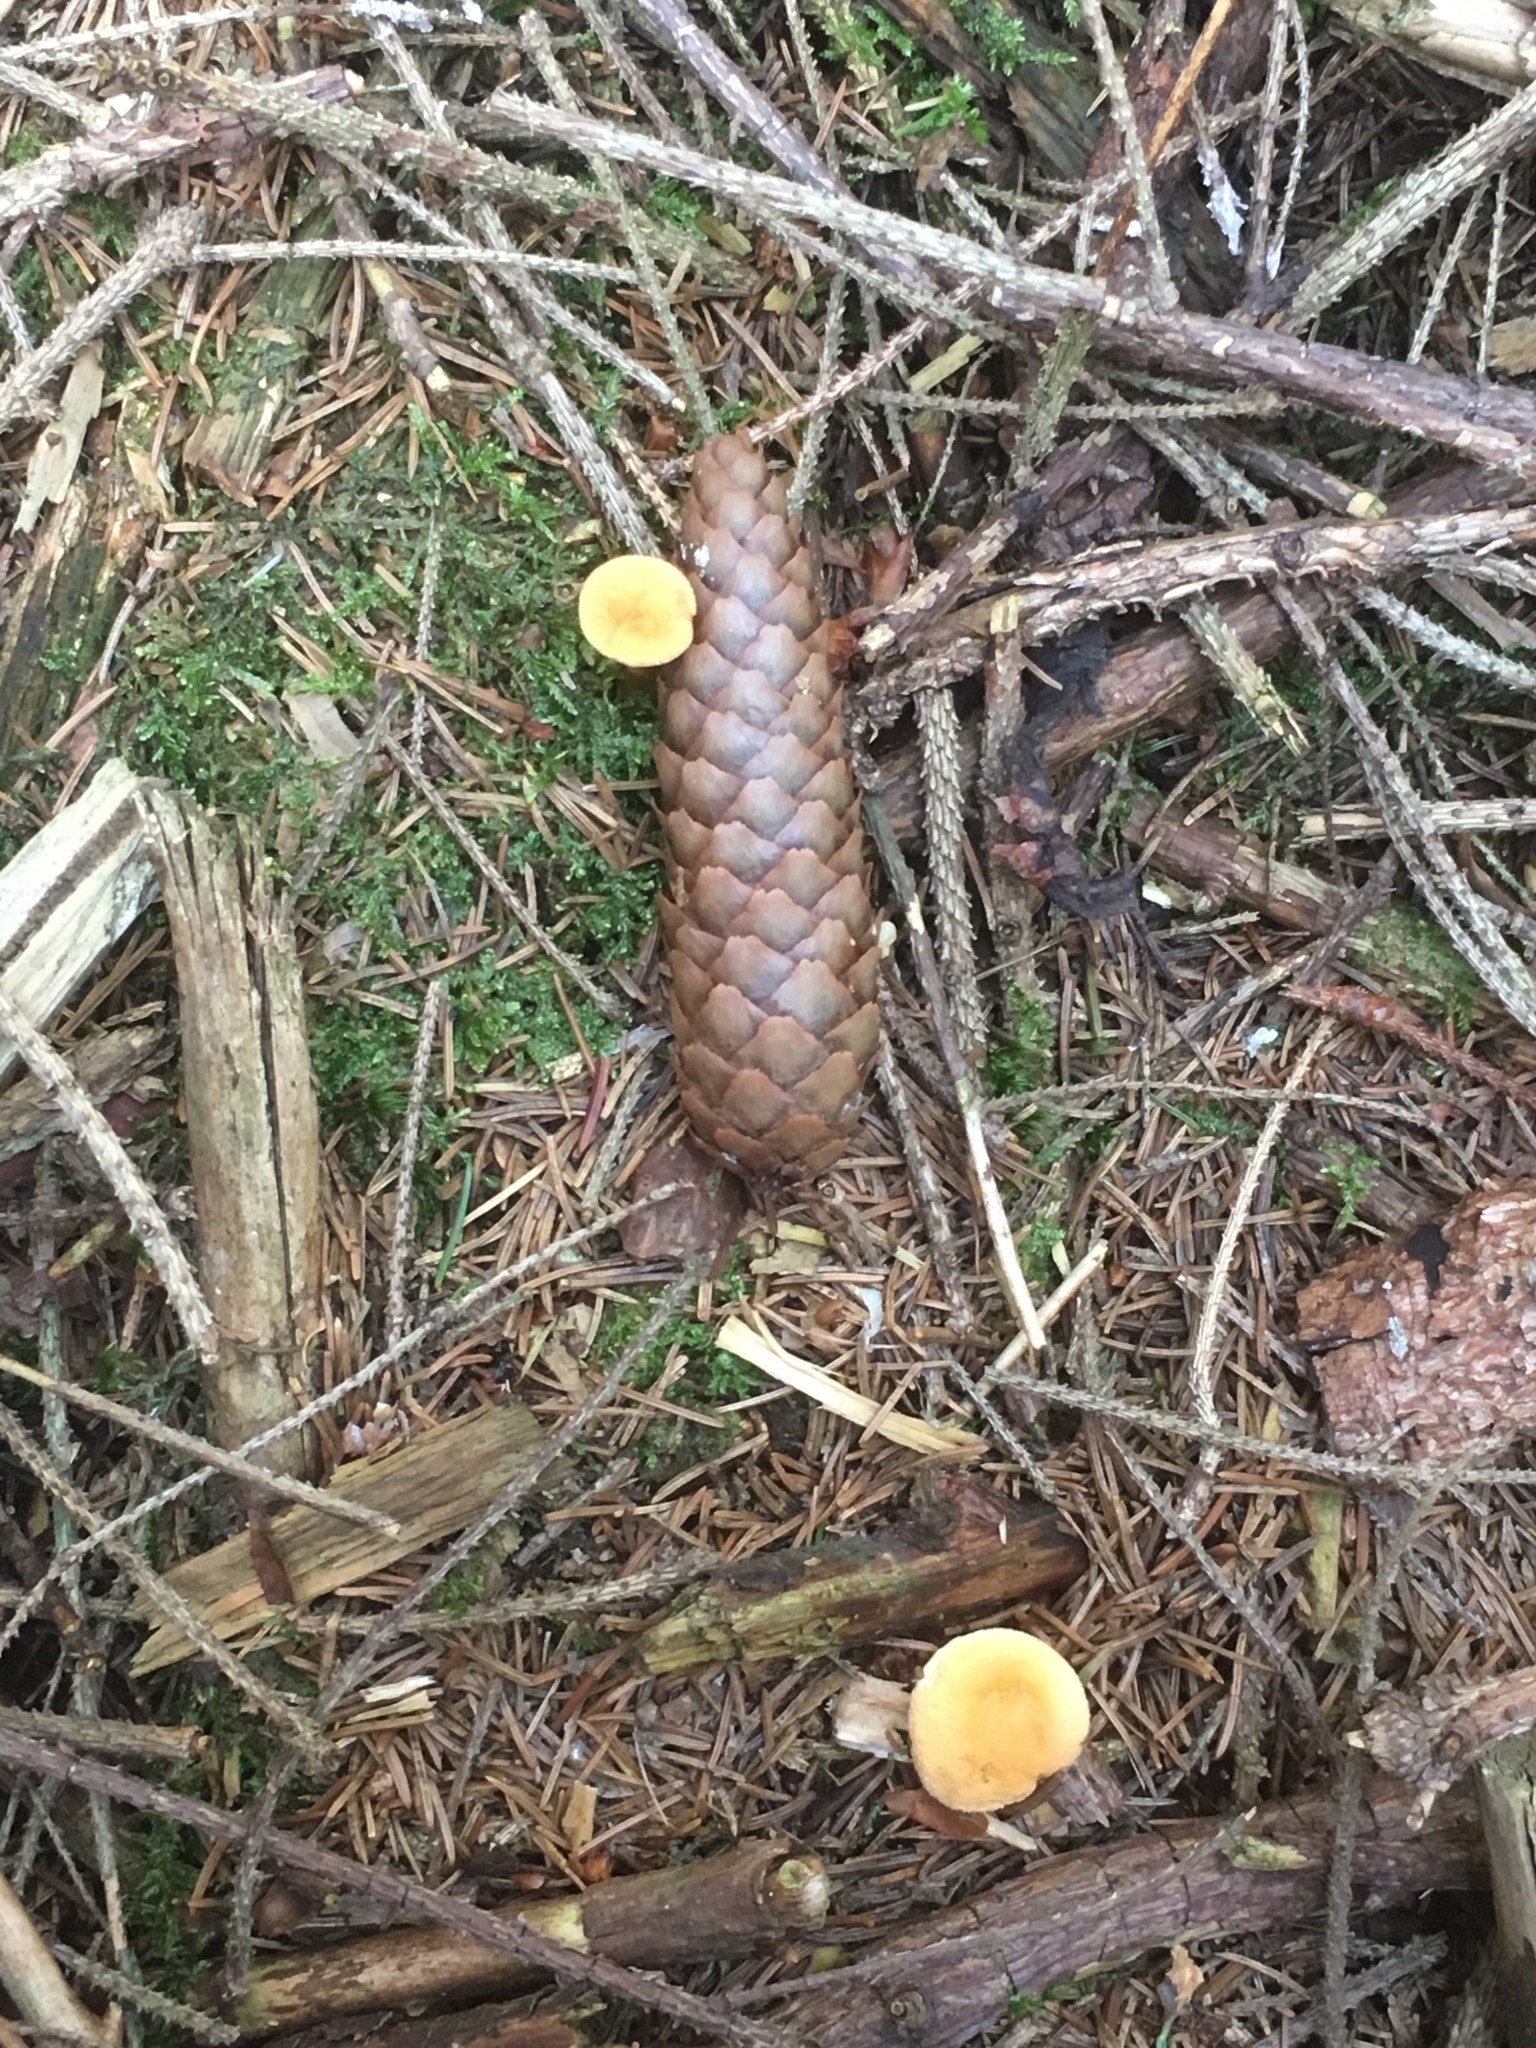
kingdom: Fungi
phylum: Basidiomycota
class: Agaricomycetes
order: Boletales
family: Hygrophoropsidaceae
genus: Hygrophoropsis
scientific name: Hygrophoropsis aurantiaca
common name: False chanterelle
